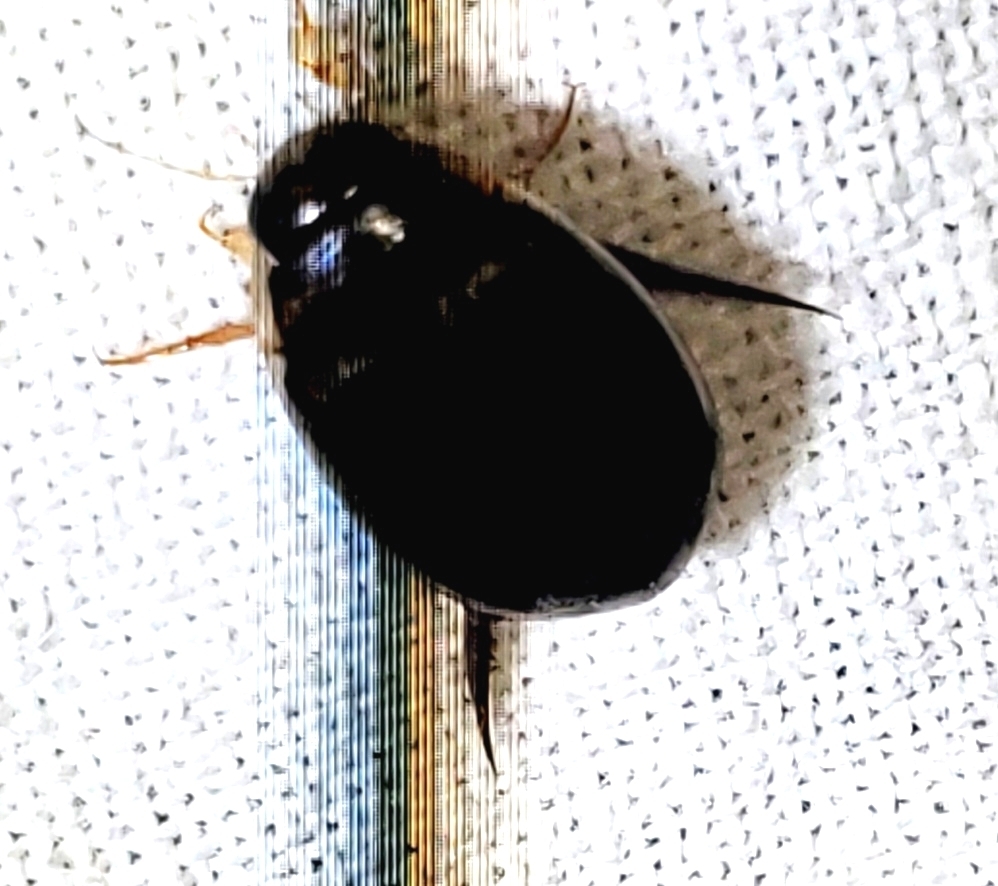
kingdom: Animalia
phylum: Arthropoda
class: Insecta
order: Coleoptera
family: Dytiscidae
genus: Thermonectus
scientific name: Thermonectus basillaris
